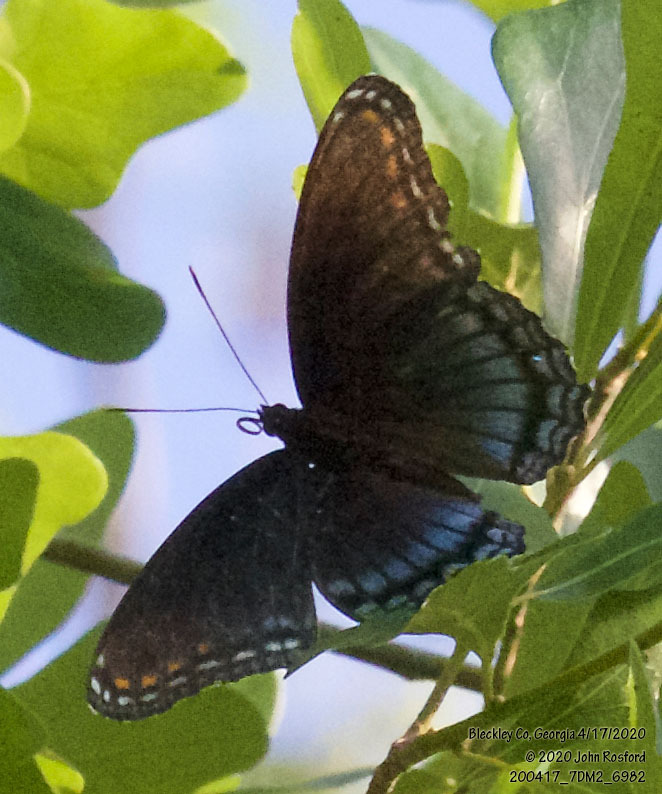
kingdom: Animalia
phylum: Arthropoda
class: Insecta
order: Lepidoptera
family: Nymphalidae
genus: Limenitis
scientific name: Limenitis astyanax
